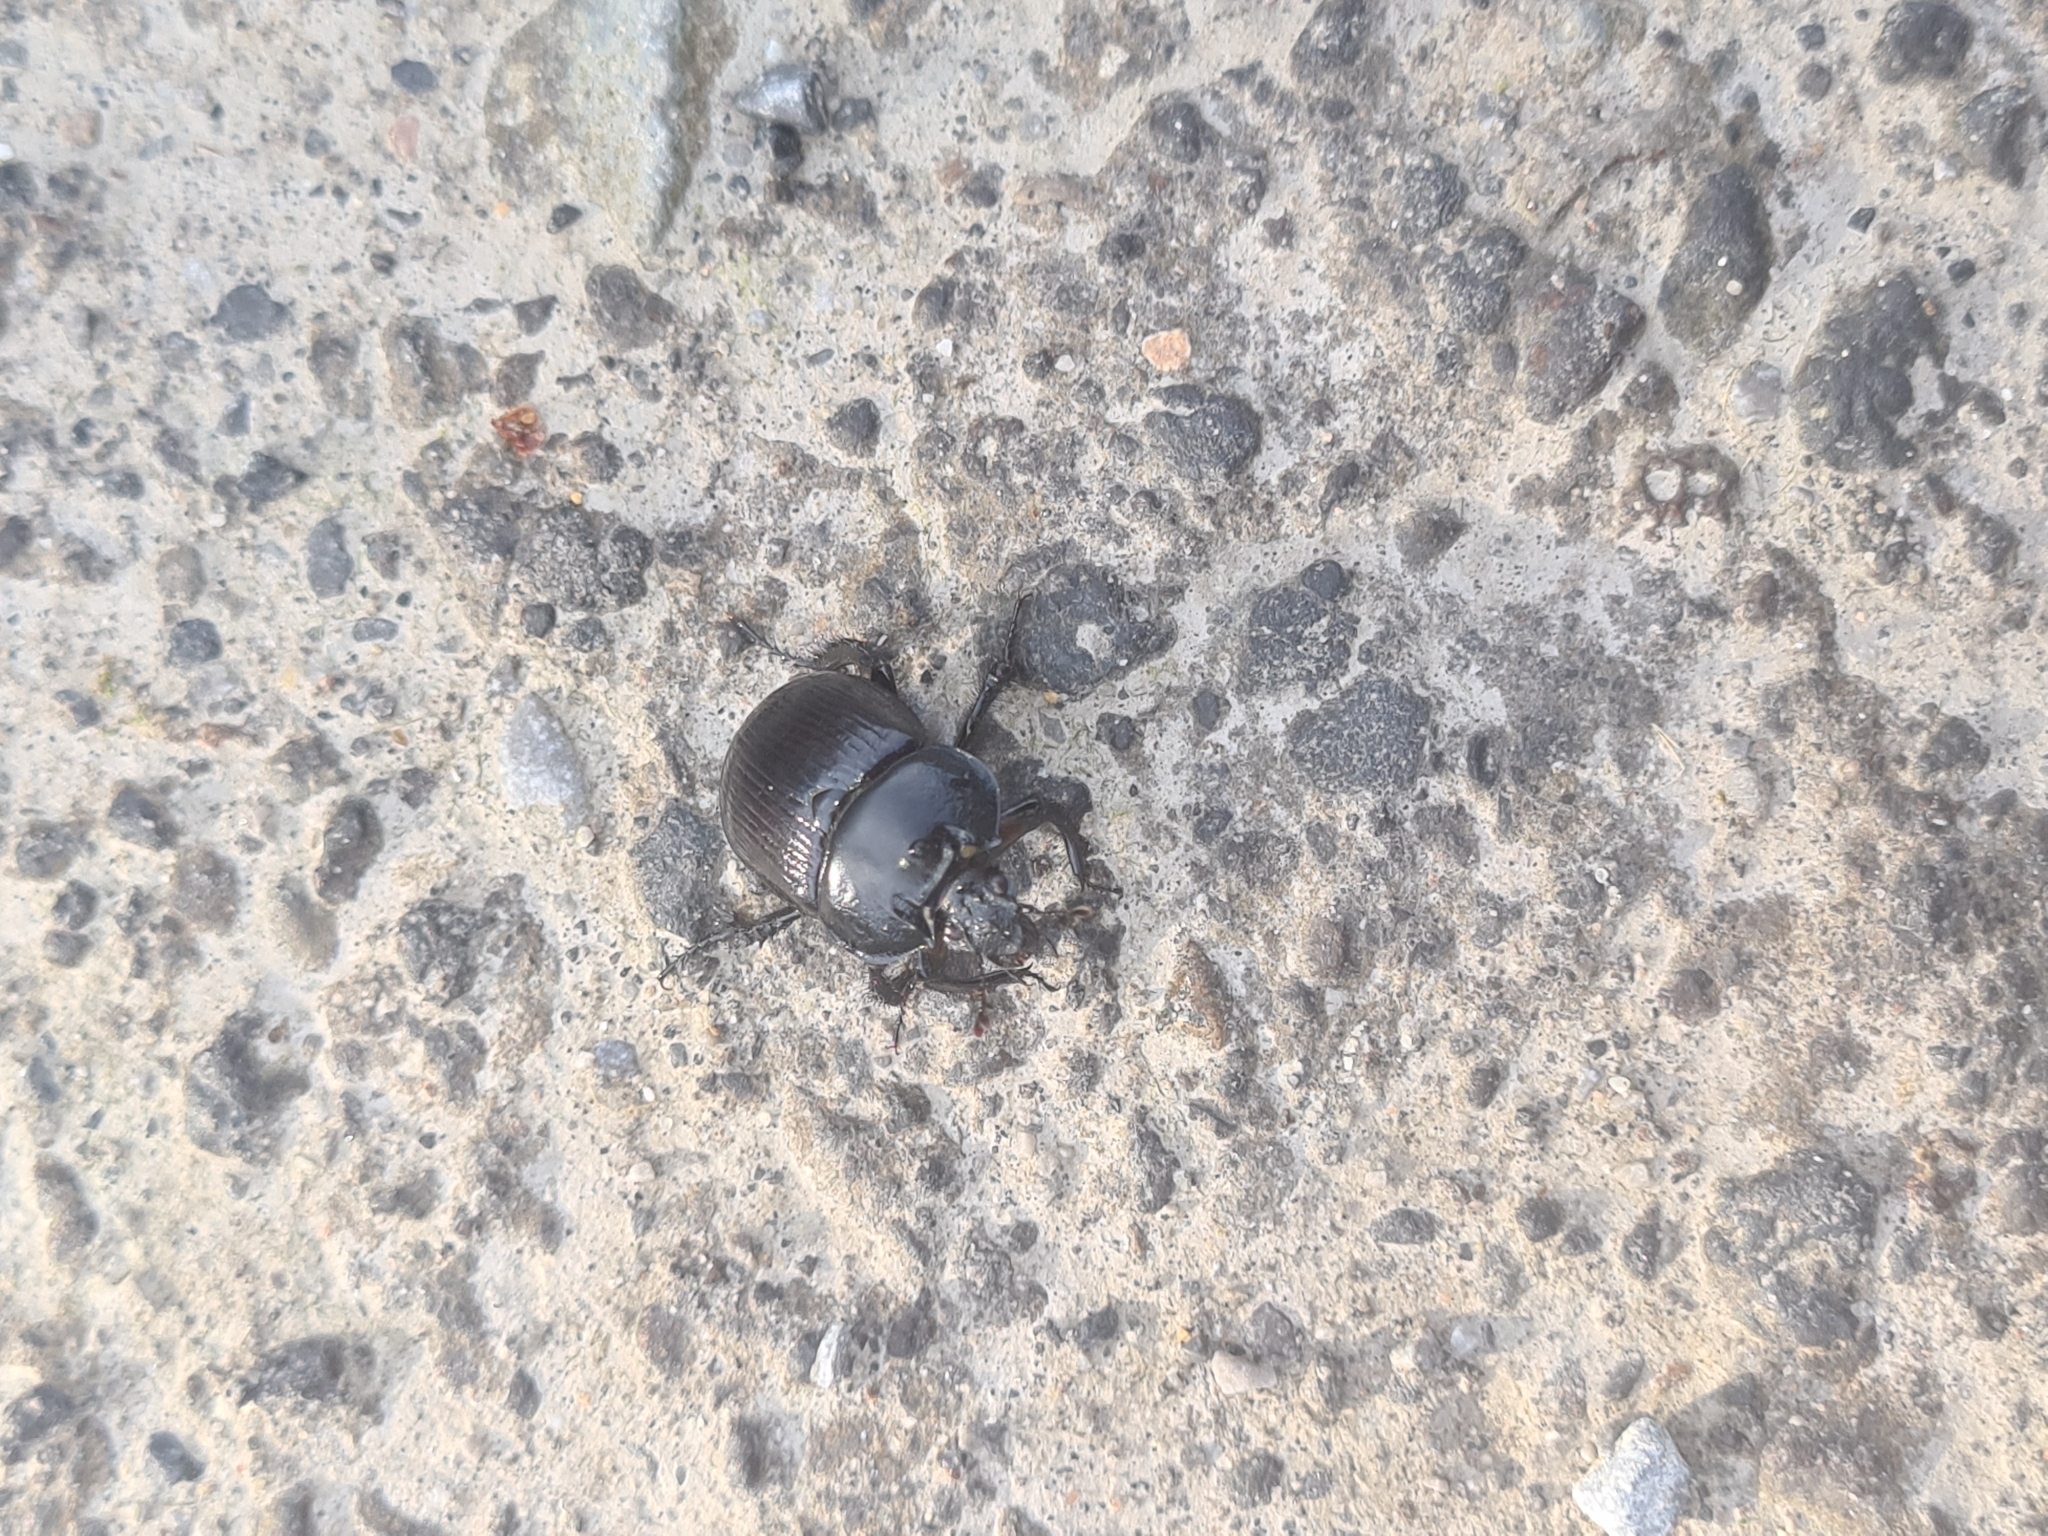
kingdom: Animalia
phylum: Arthropoda
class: Insecta
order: Coleoptera
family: Geotrupidae
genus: Typhaeus
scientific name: Typhaeus typhoeus
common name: Minotaur beetle
